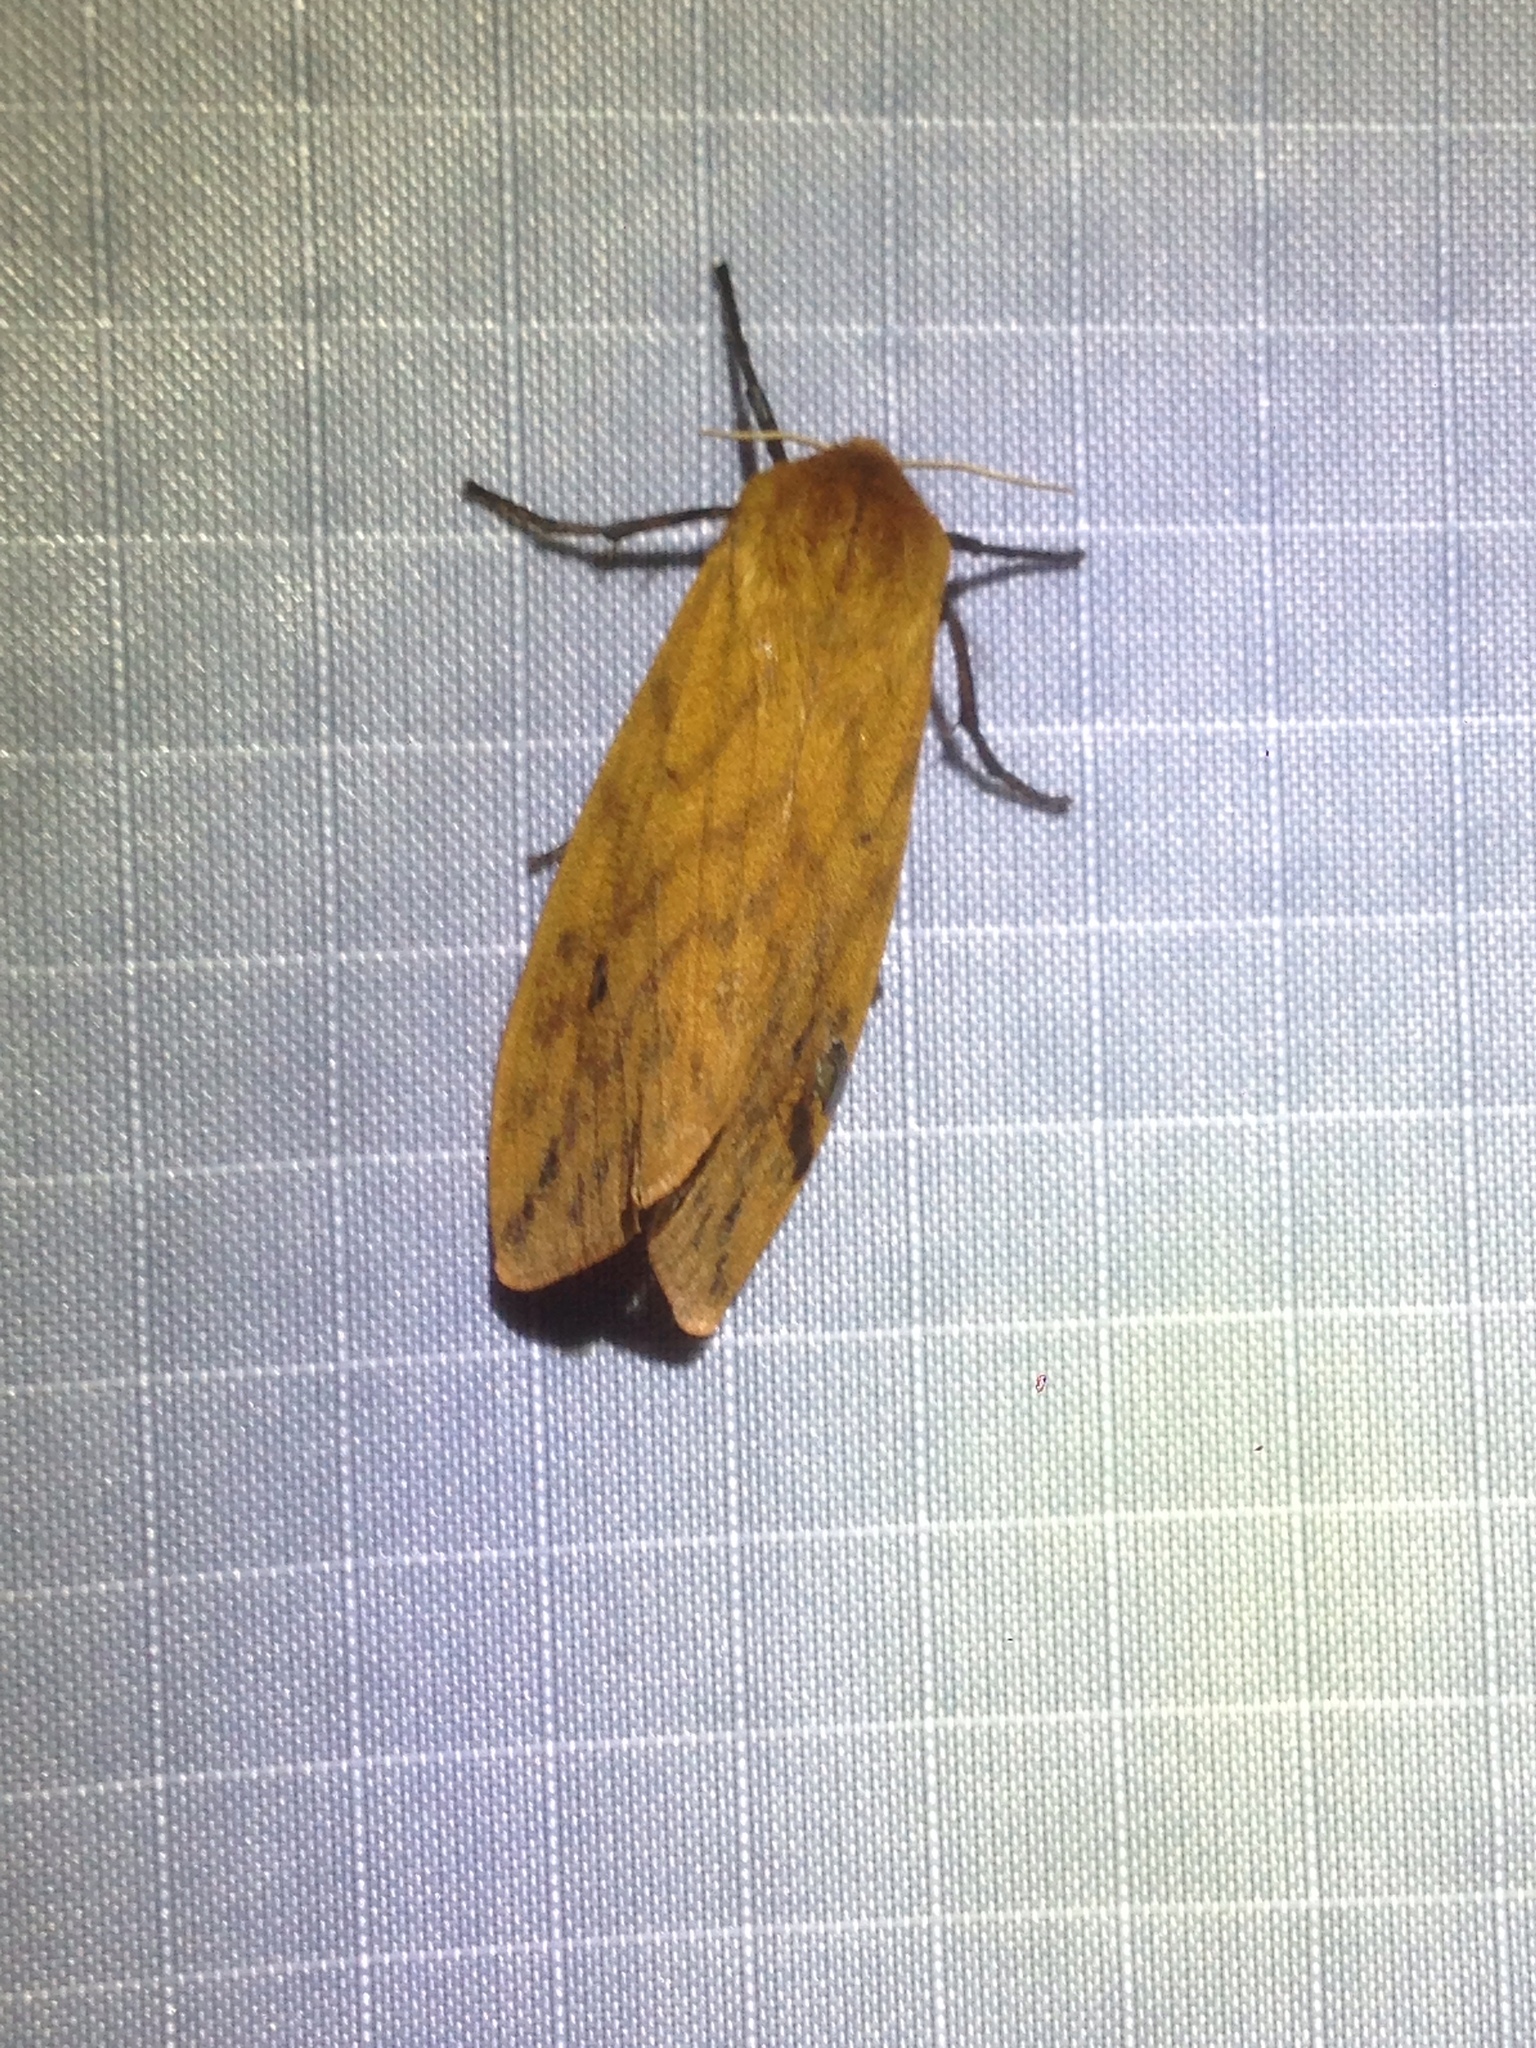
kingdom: Animalia
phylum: Arthropoda
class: Insecta
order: Lepidoptera
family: Erebidae
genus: Pyrrharctia
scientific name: Pyrrharctia isabella
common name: Isabella tiger moth
